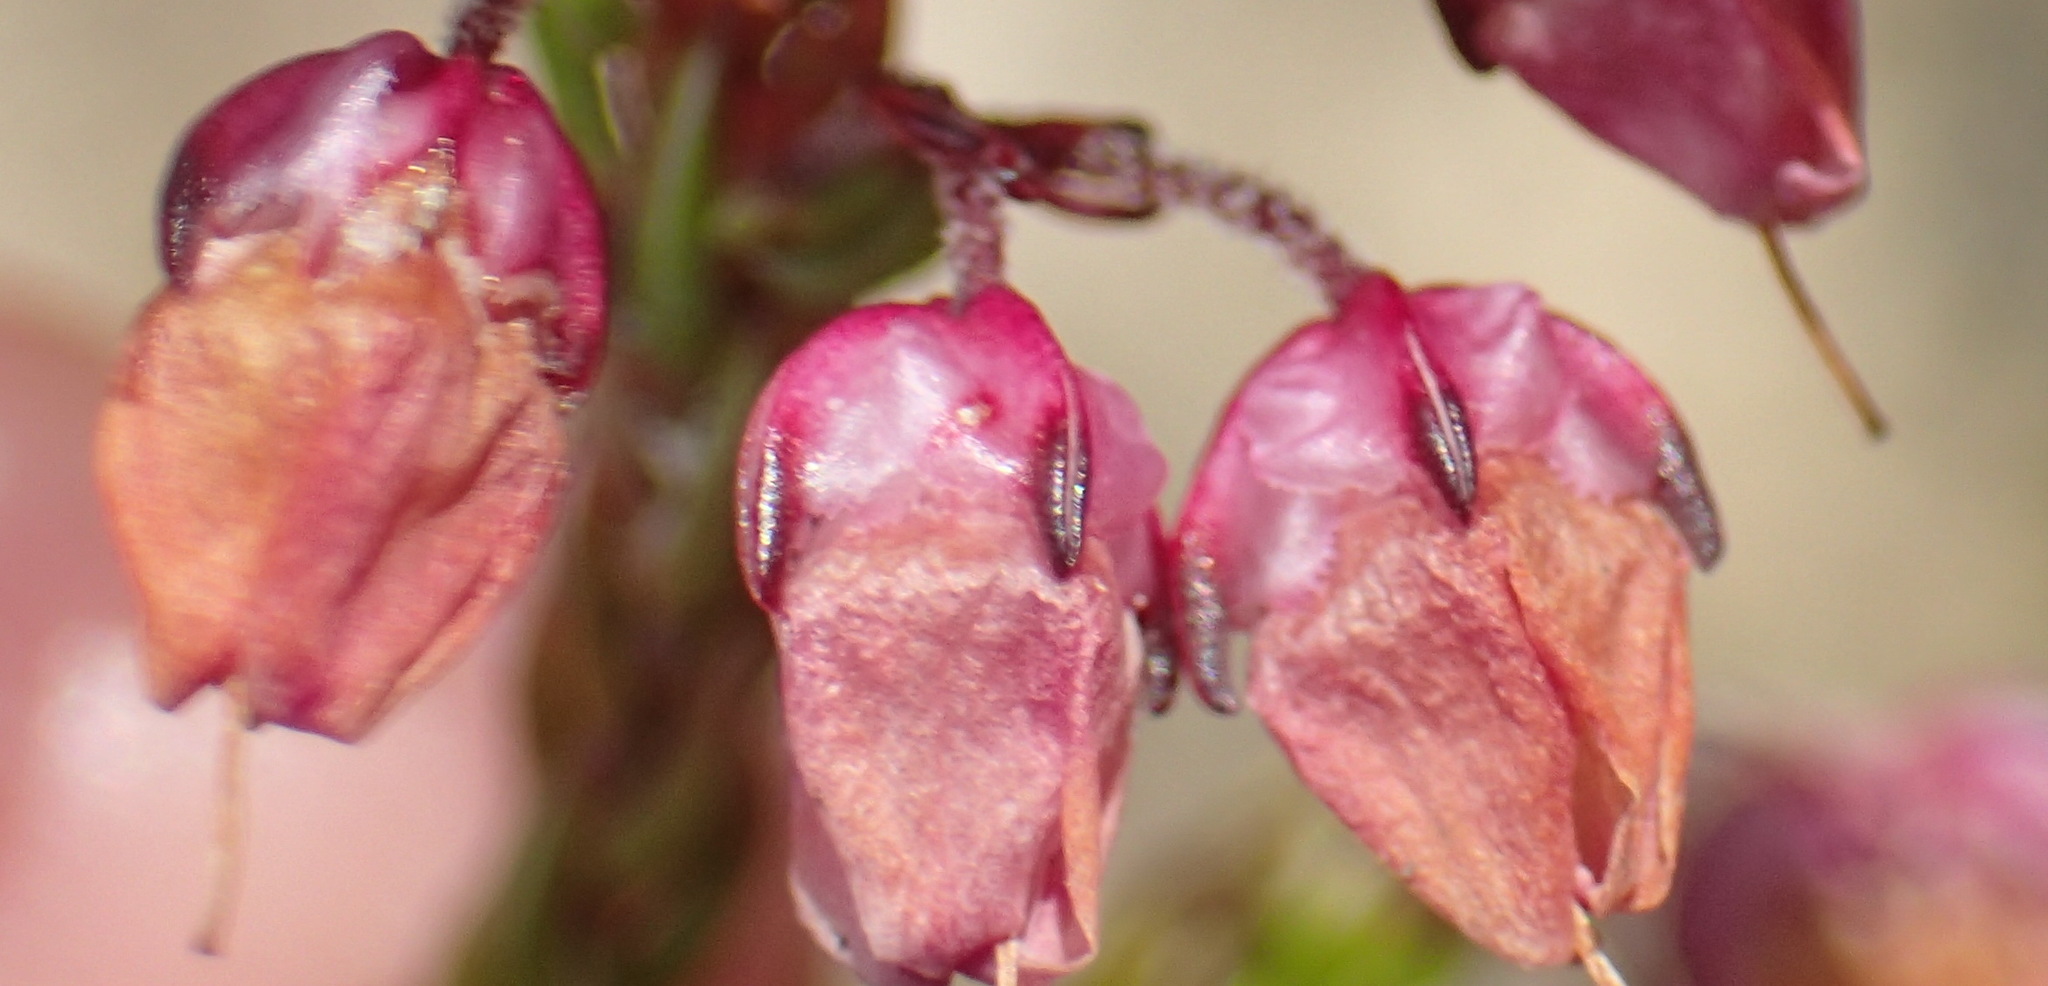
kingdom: Plantae
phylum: Tracheophyta
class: Magnoliopsida
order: Ericales
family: Ericaceae
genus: Erica
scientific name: Erica cubica
